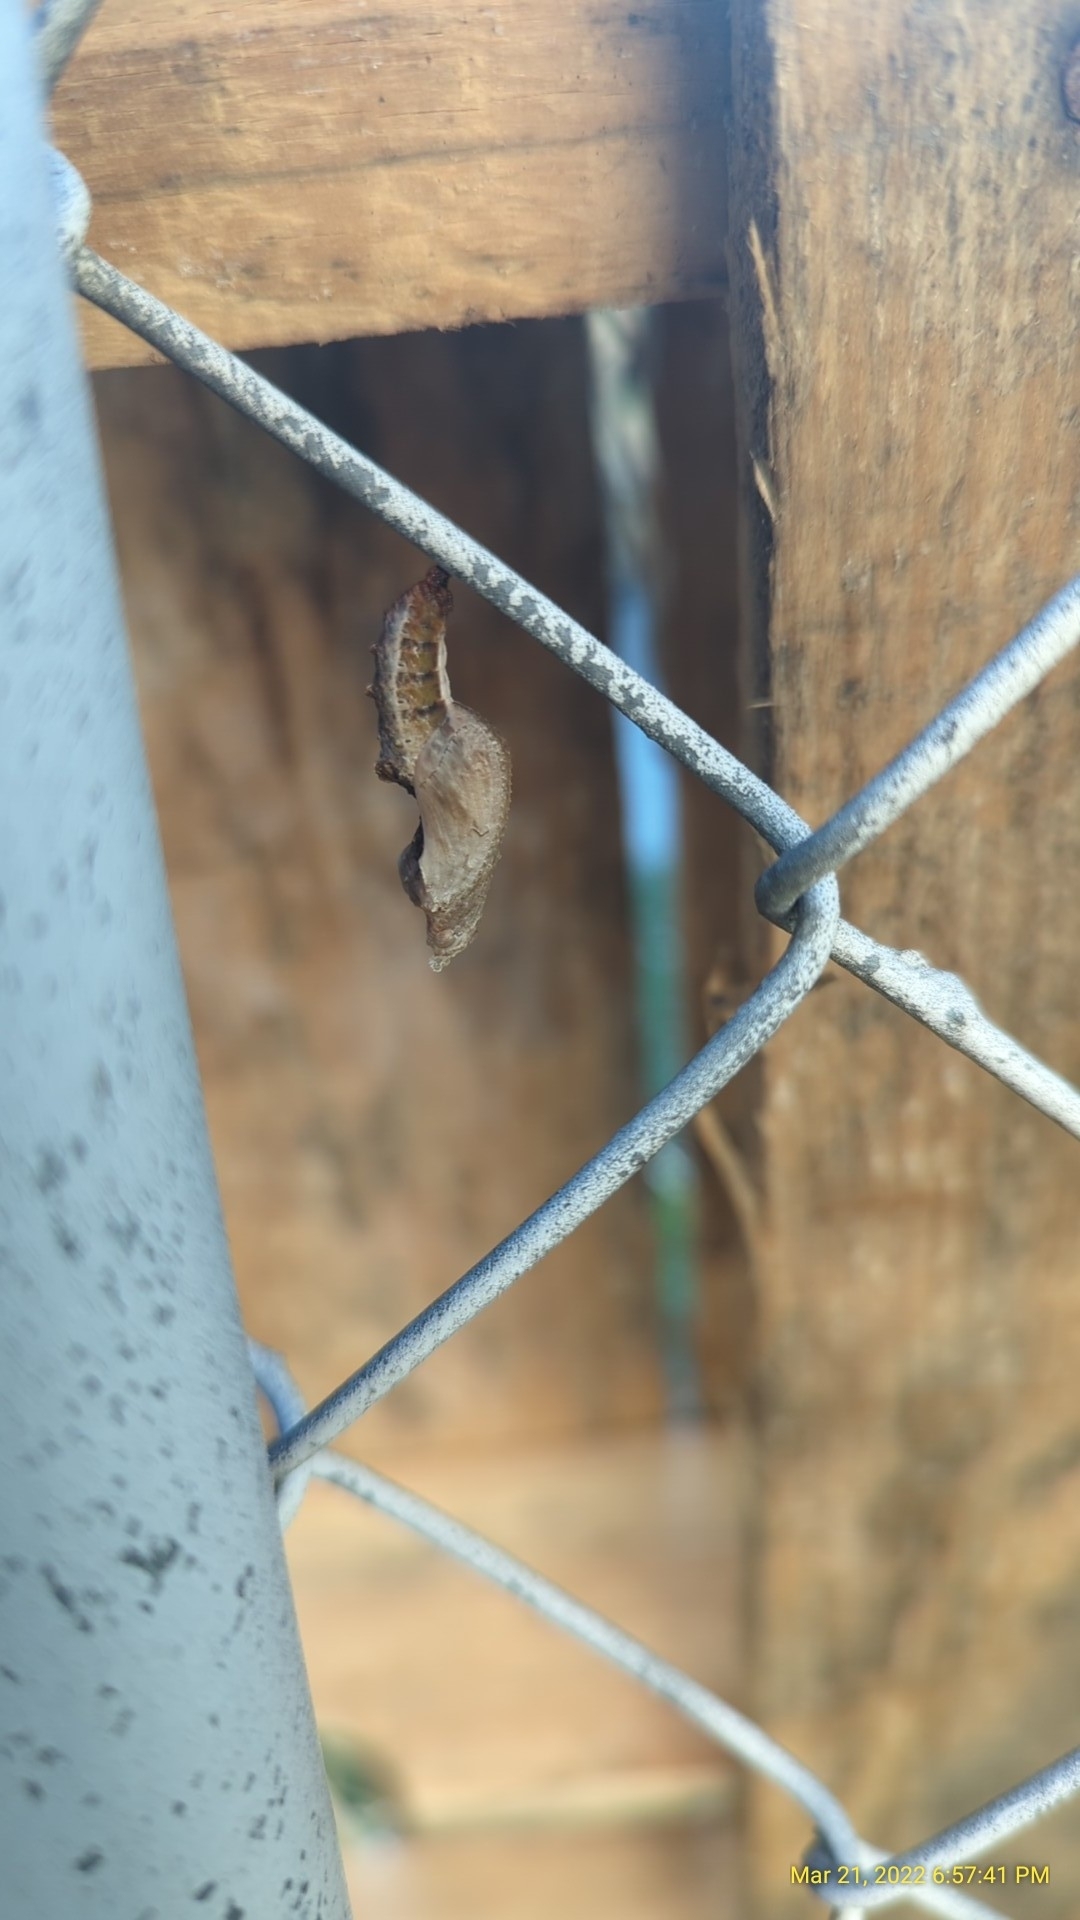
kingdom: Animalia
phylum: Arthropoda
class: Insecta
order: Lepidoptera
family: Nymphalidae
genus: Dione
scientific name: Dione vanillae
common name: Gulf fritillary
